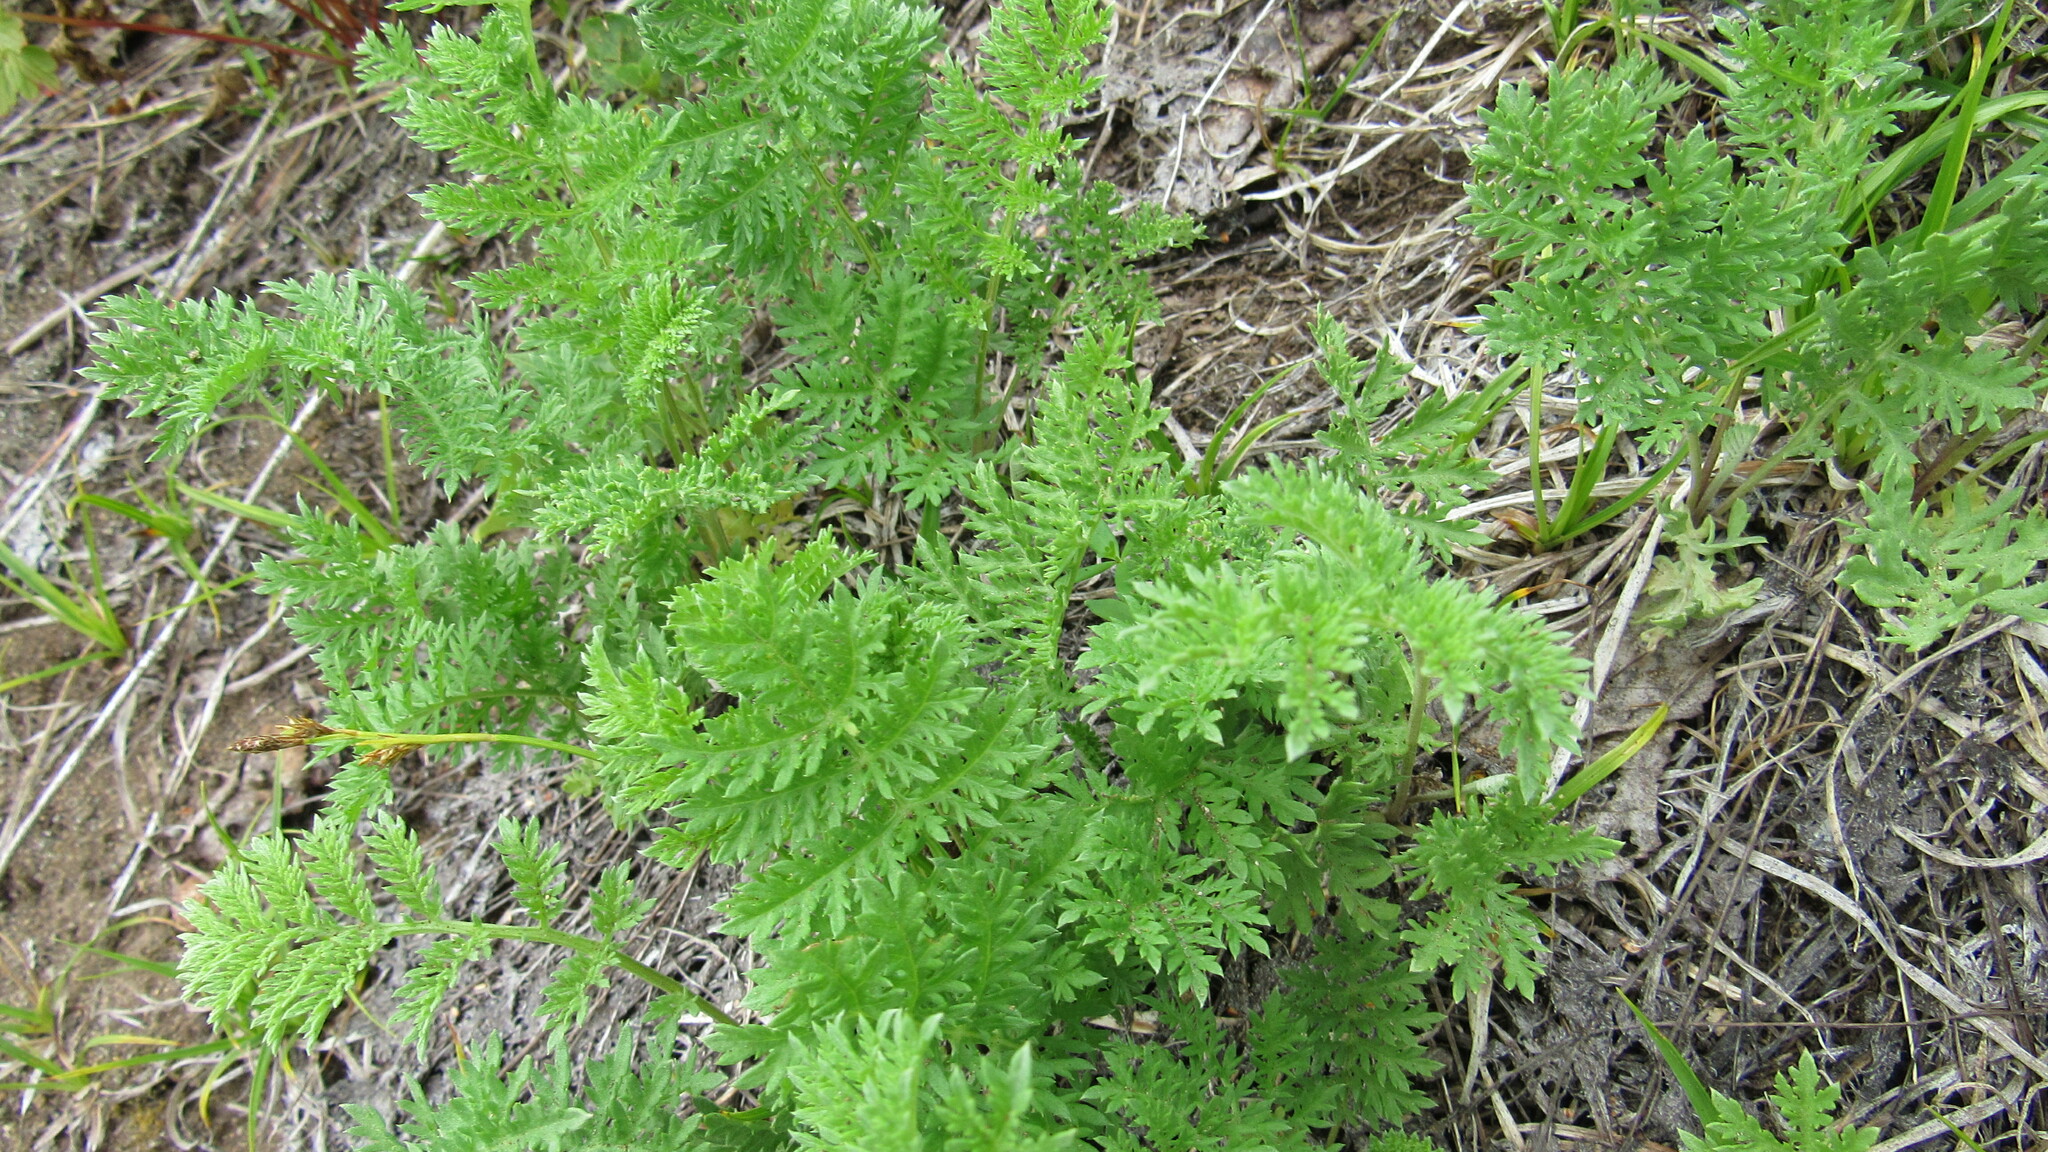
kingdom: Plantae
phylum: Tracheophyta
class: Magnoliopsida
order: Asterales
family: Asteraceae
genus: Artemisia
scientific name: Artemisia laciniata
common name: Siberian wormwood
